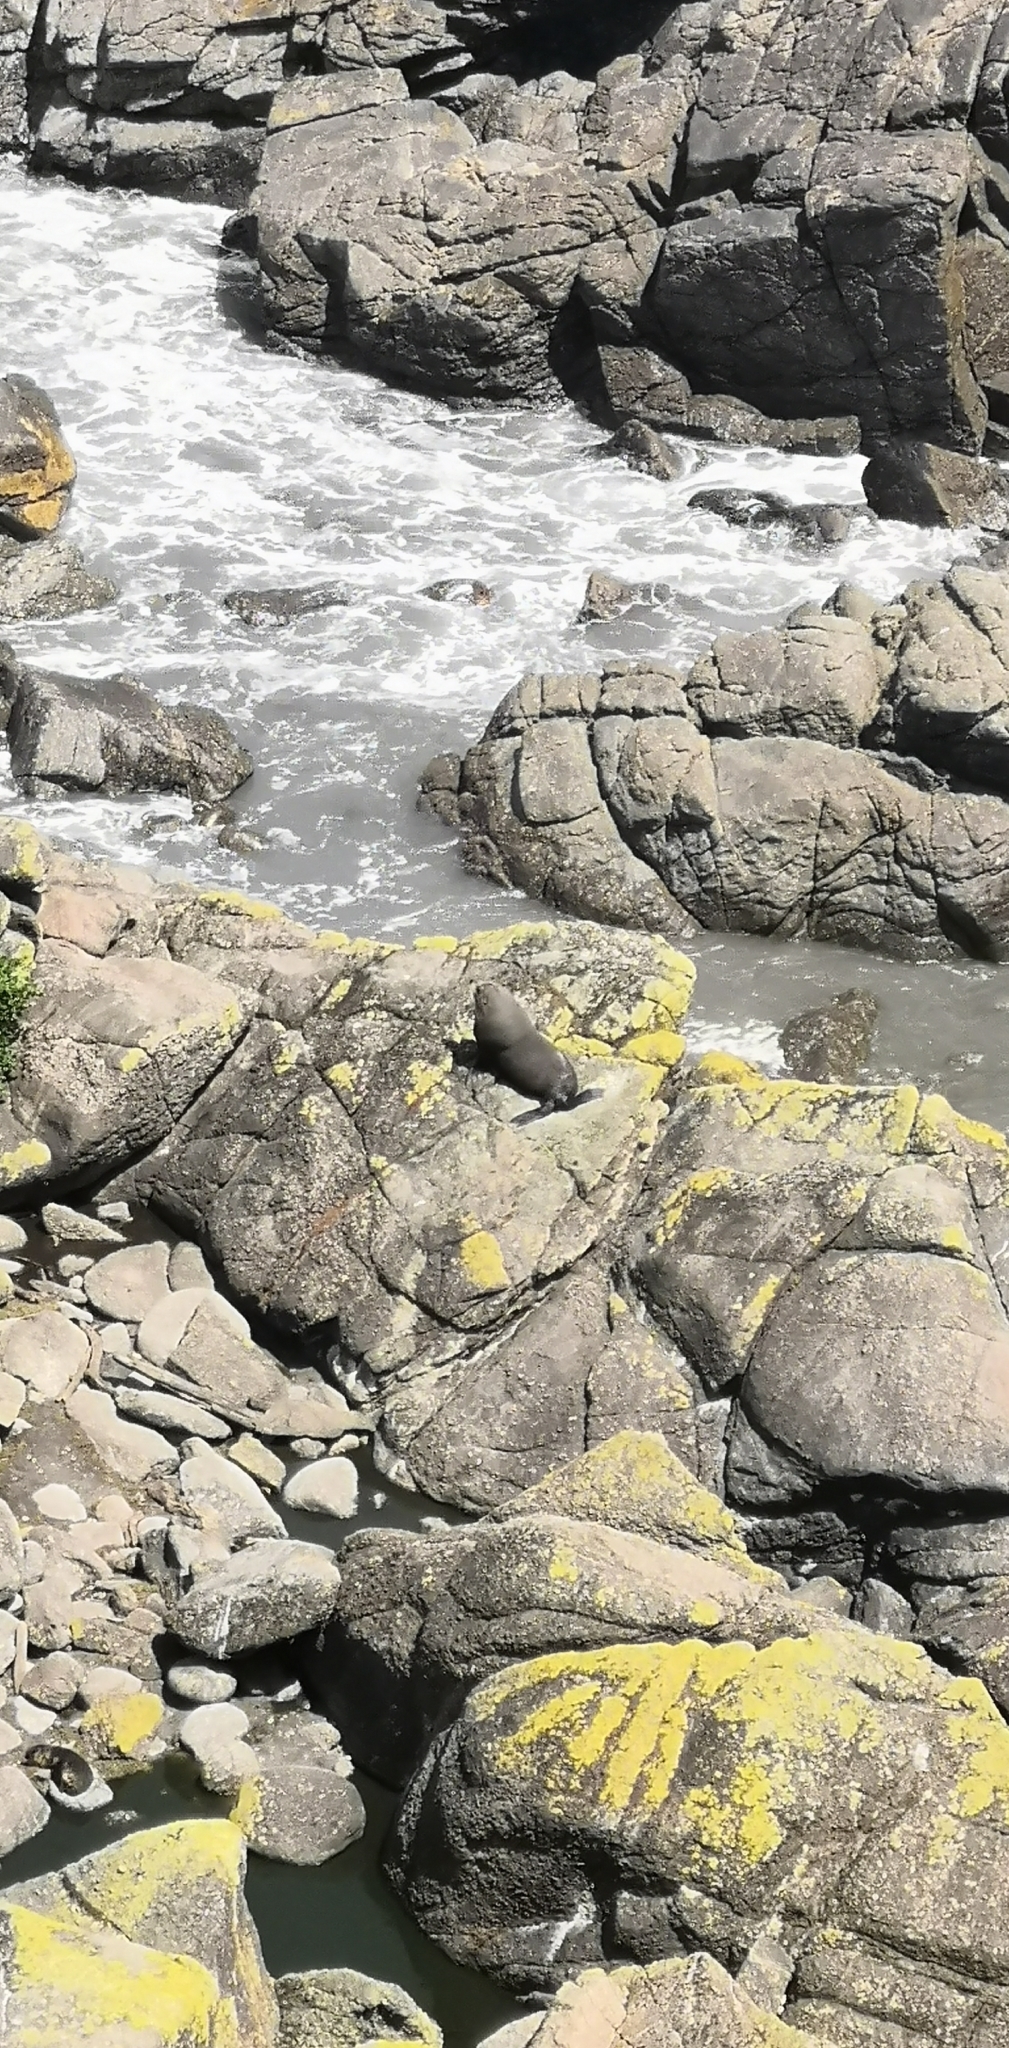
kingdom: Animalia
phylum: Chordata
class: Mammalia
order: Carnivora
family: Otariidae
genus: Arctocephalus
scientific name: Arctocephalus forsteri
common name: New zealand fur seal
